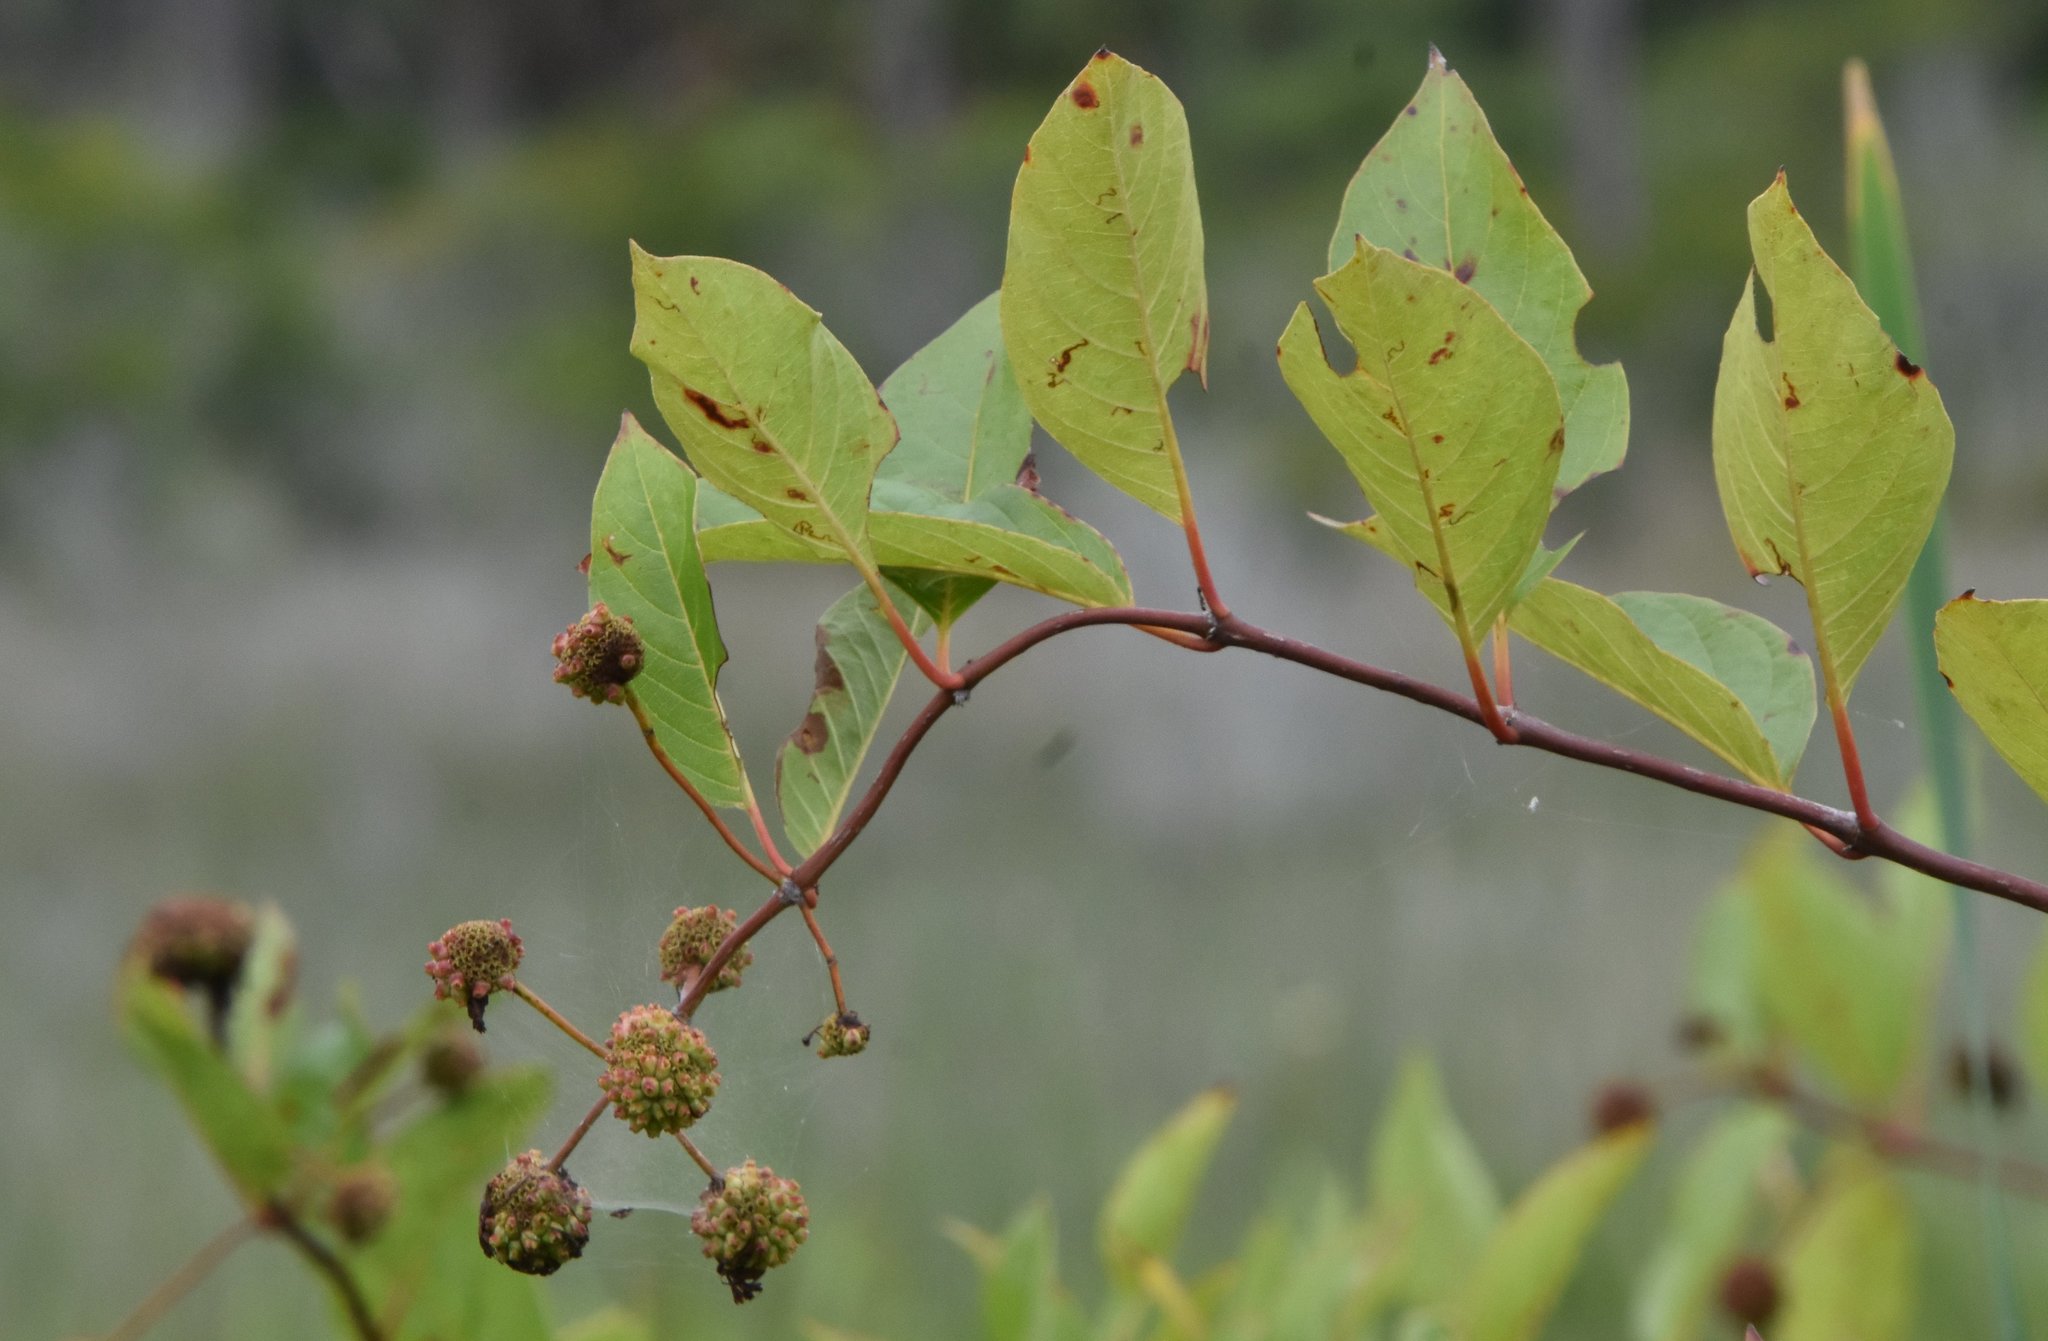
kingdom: Plantae
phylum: Tracheophyta
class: Magnoliopsida
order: Gentianales
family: Rubiaceae
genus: Cephalanthus
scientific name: Cephalanthus occidentalis
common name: Button-willow
